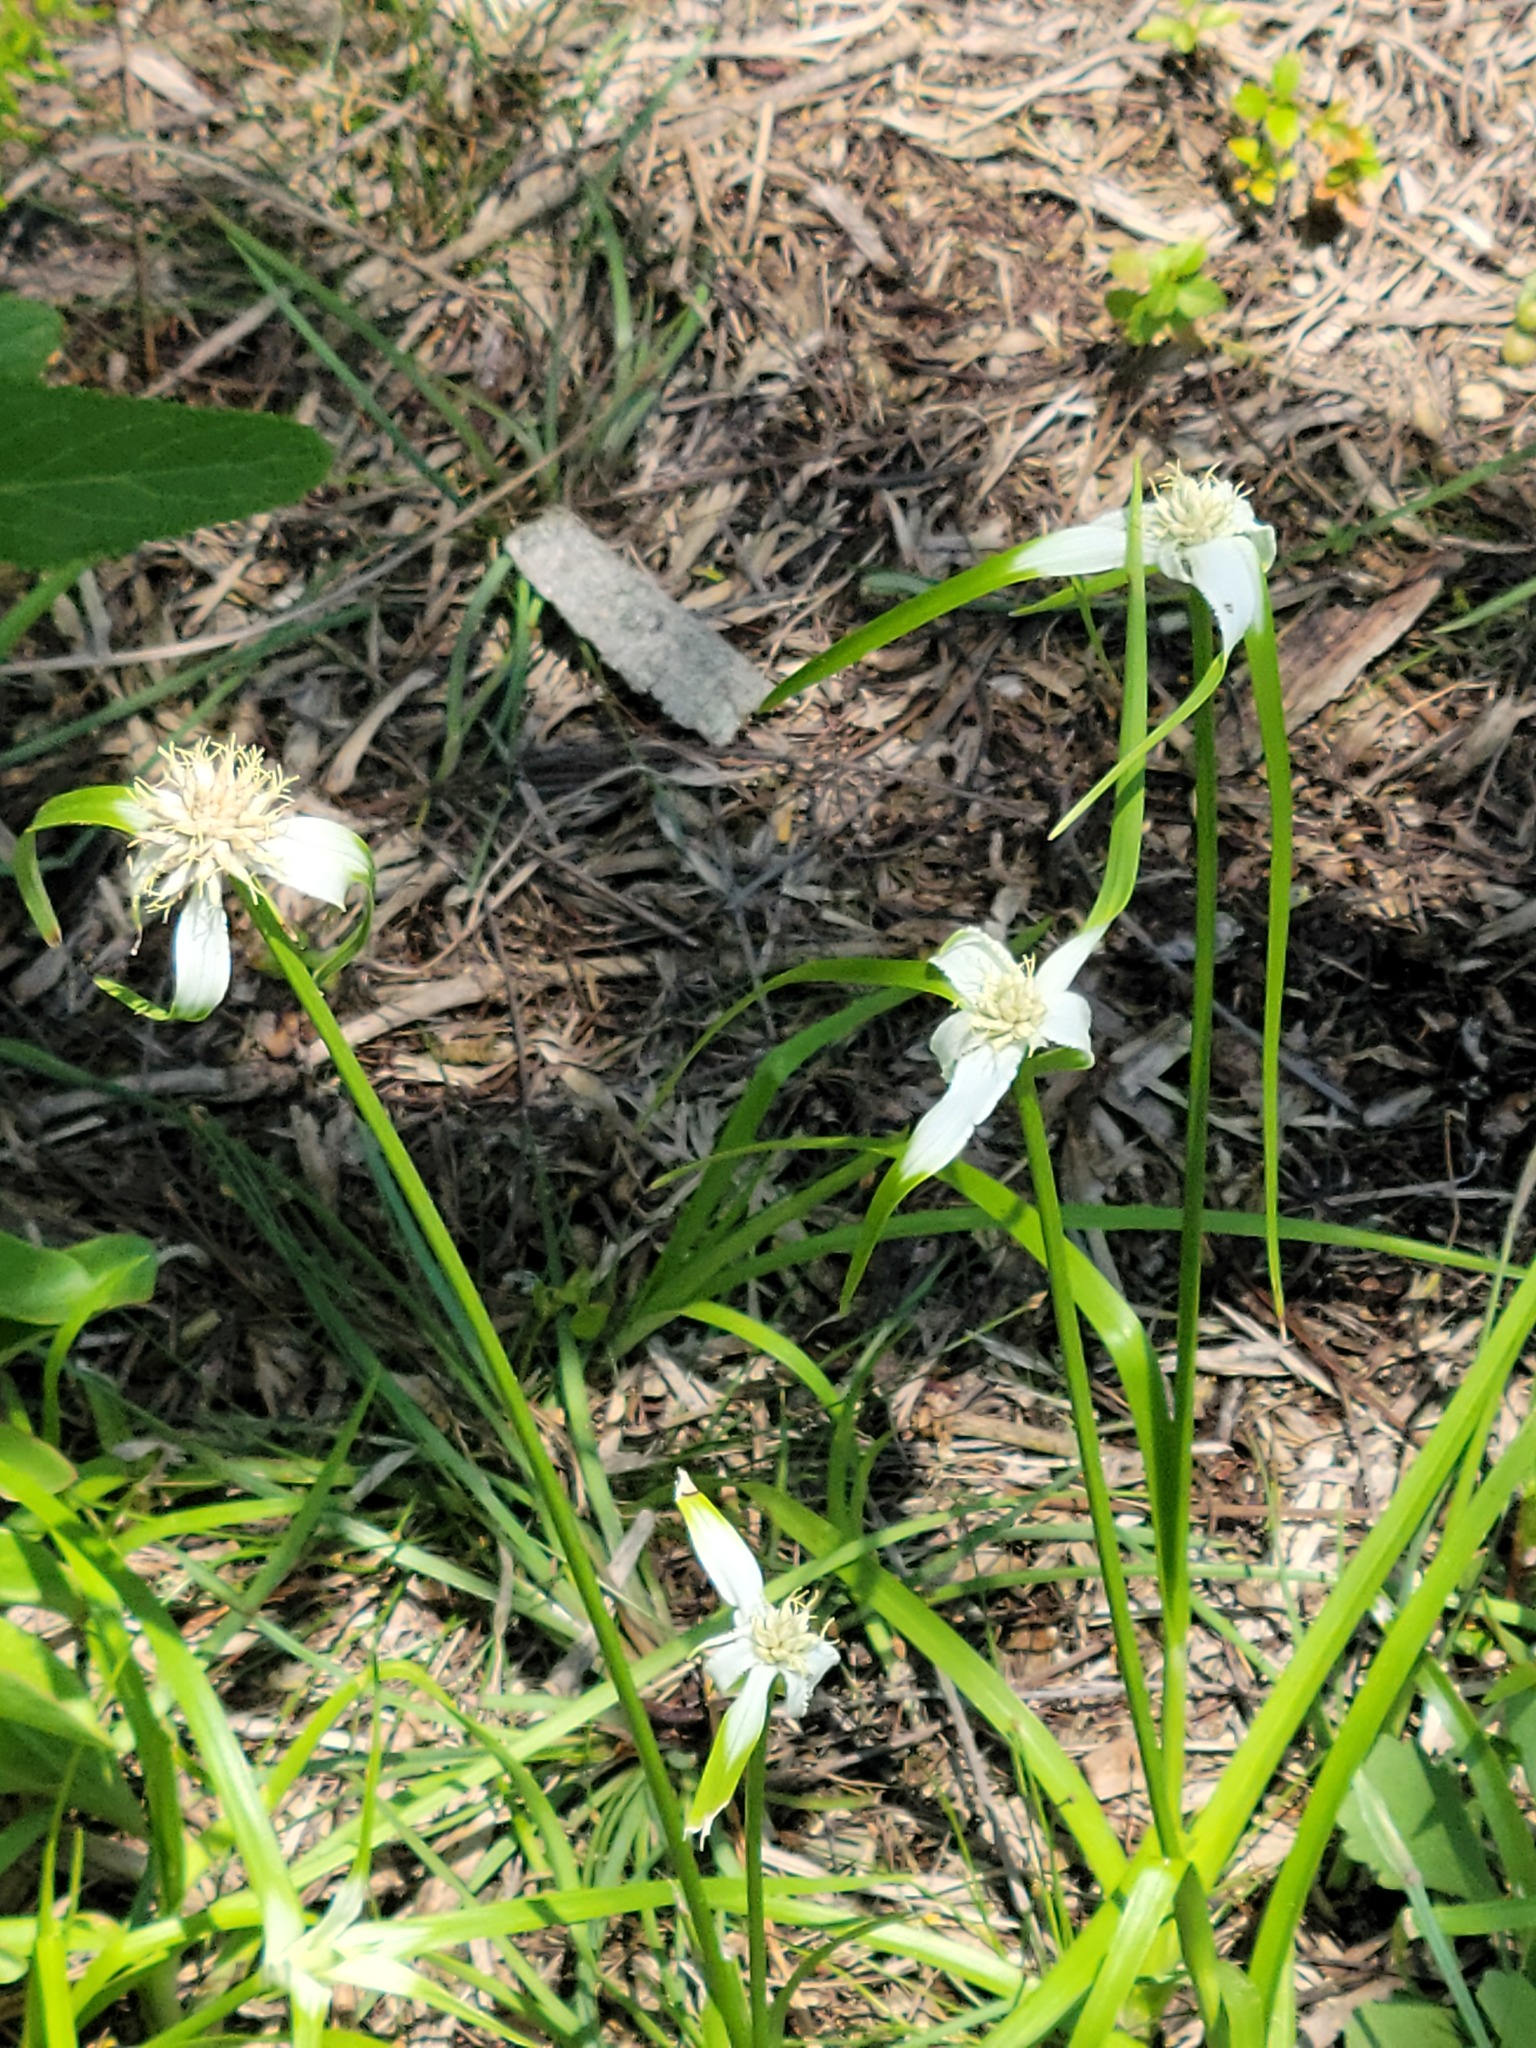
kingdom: Plantae
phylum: Tracheophyta
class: Liliopsida
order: Poales
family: Cyperaceae
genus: Rhynchospora
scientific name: Rhynchospora colorata
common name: Star sedge
